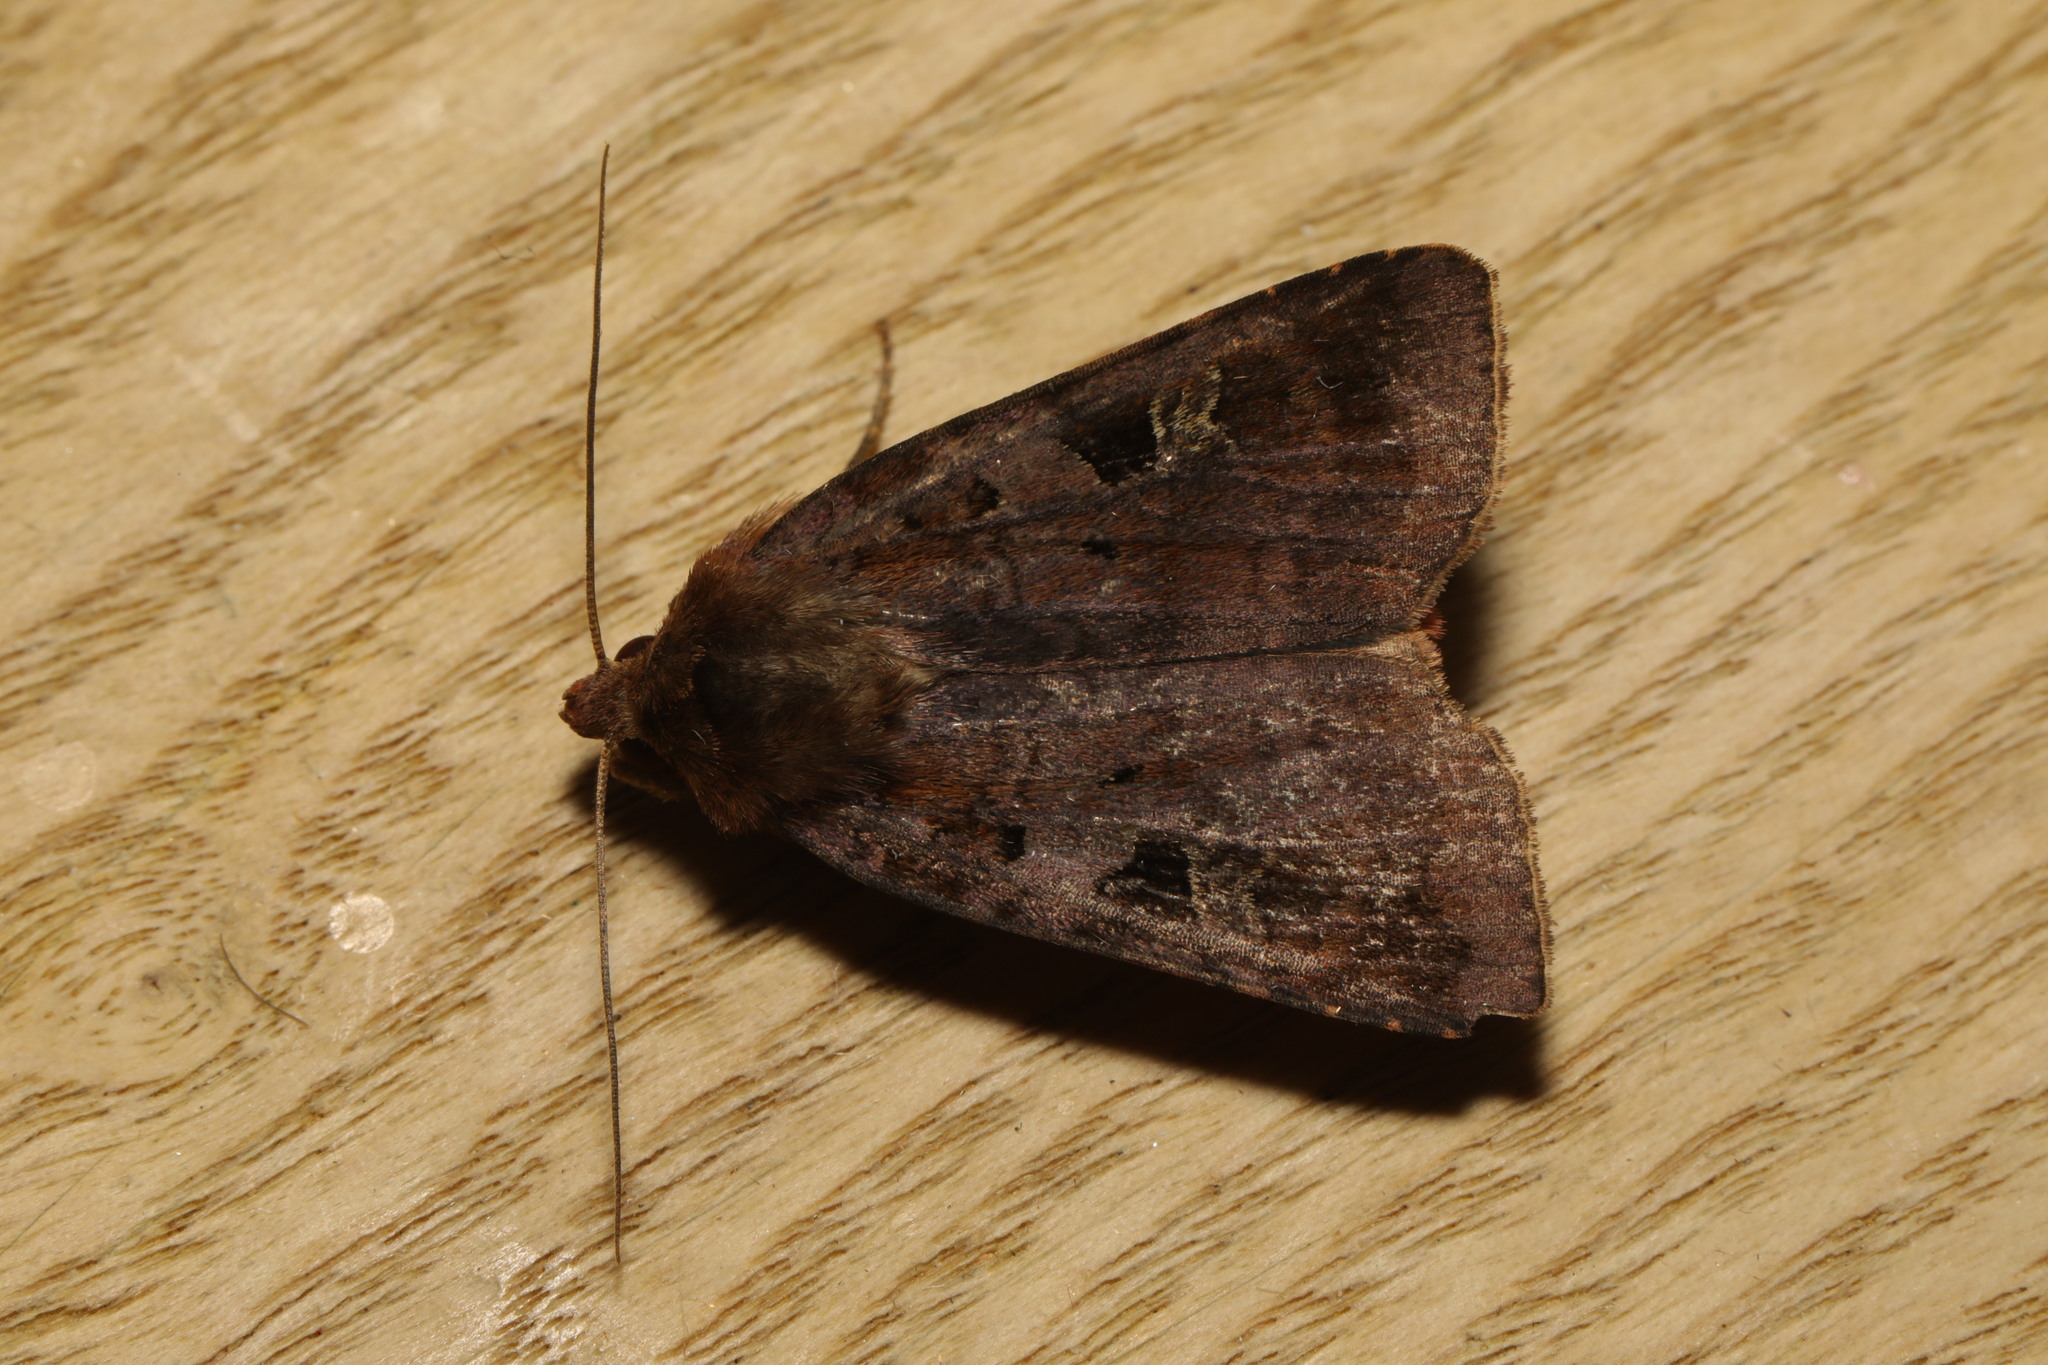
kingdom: Animalia
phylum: Arthropoda
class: Insecta
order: Lepidoptera
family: Noctuidae
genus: Diarsia
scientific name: Diarsia brunnea
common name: Purple clay
